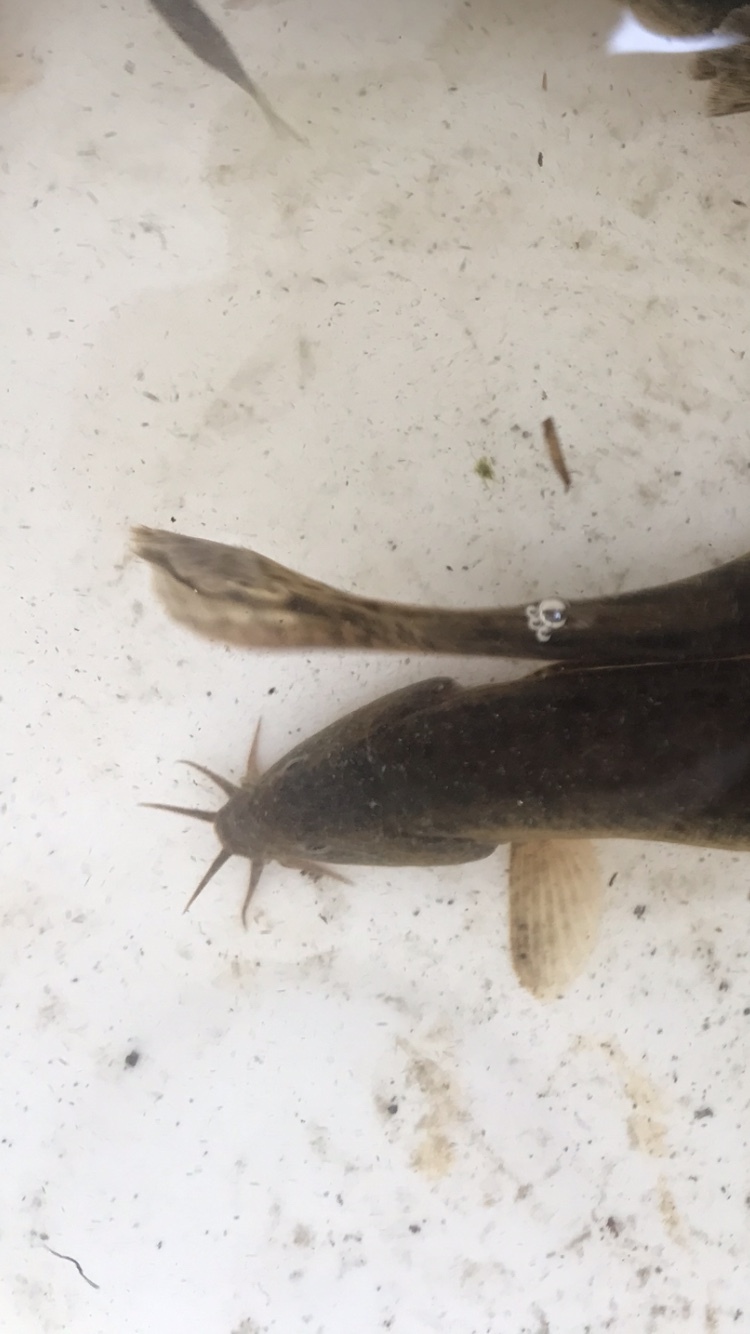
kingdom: Animalia
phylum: Chordata
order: Cypriniformes
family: Cobitidae
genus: Misgurnus
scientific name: Misgurnus anguillicaudatus
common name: Oriental weatherfish
